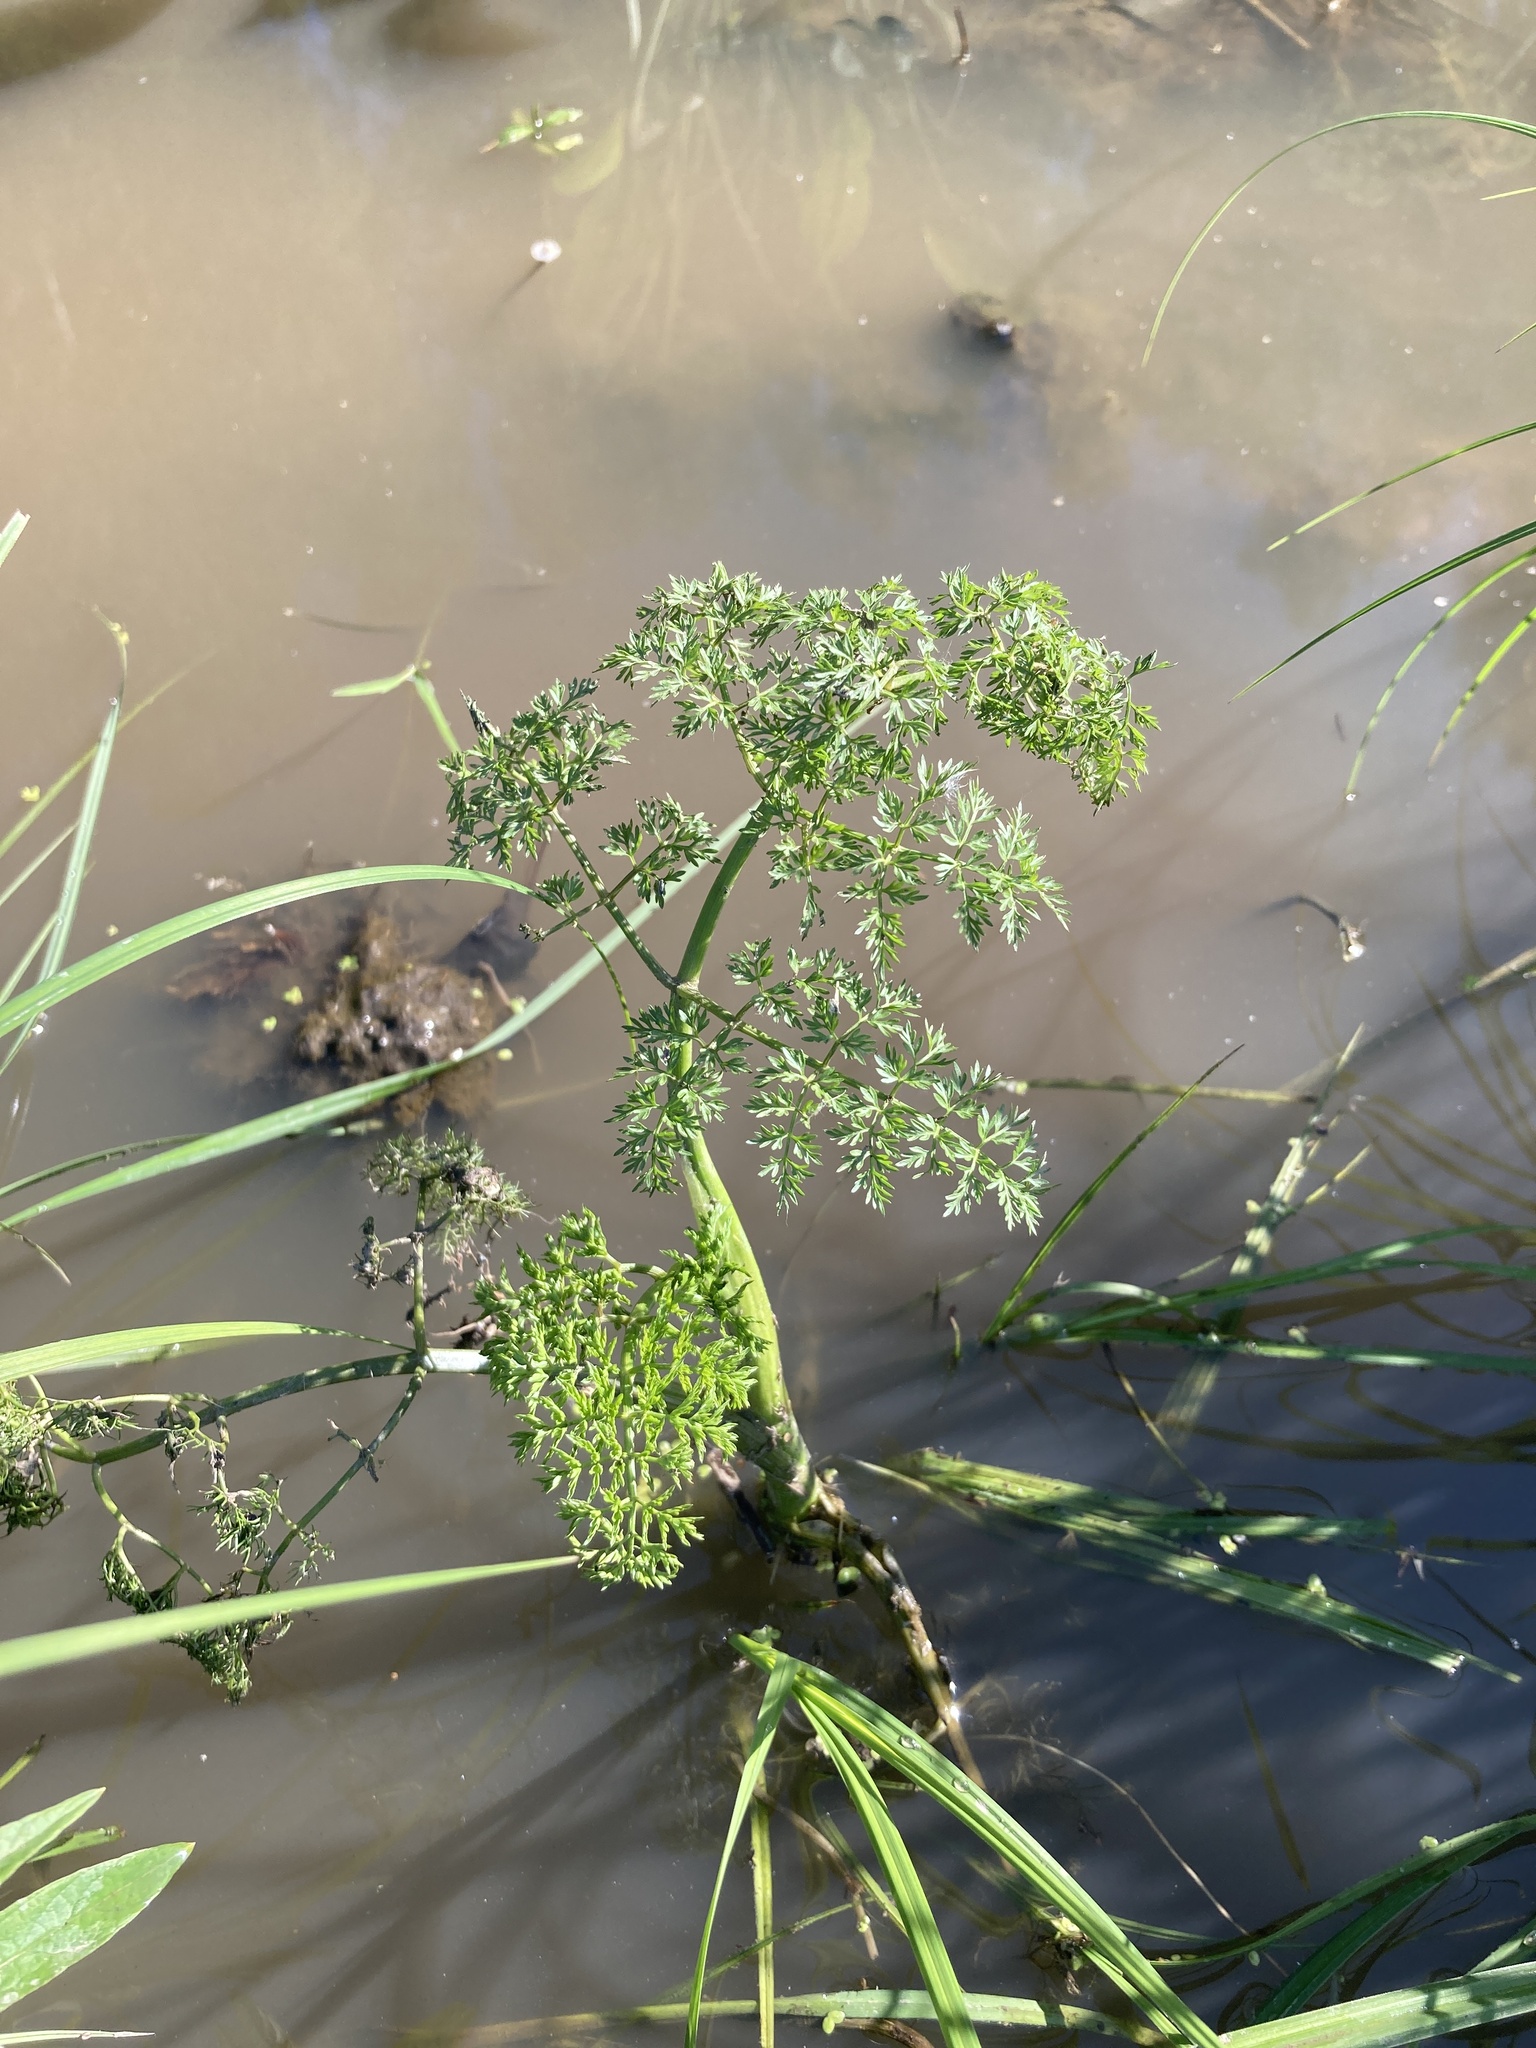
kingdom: Plantae
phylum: Tracheophyta
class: Magnoliopsida
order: Apiales
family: Apiaceae
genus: Oenanthe
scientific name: Oenanthe aquatica
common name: Fine-leaved water-dropwort
